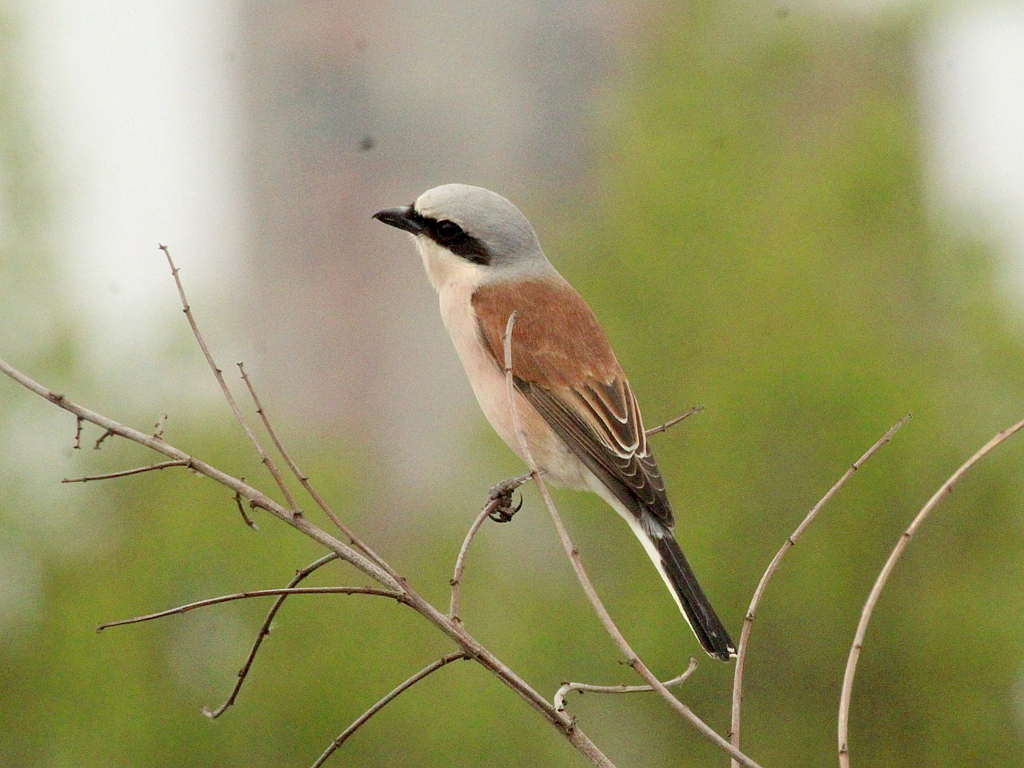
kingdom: Animalia
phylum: Chordata
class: Aves
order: Passeriformes
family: Laniidae
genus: Lanius
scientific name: Lanius collurio
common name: Red-backed shrike
